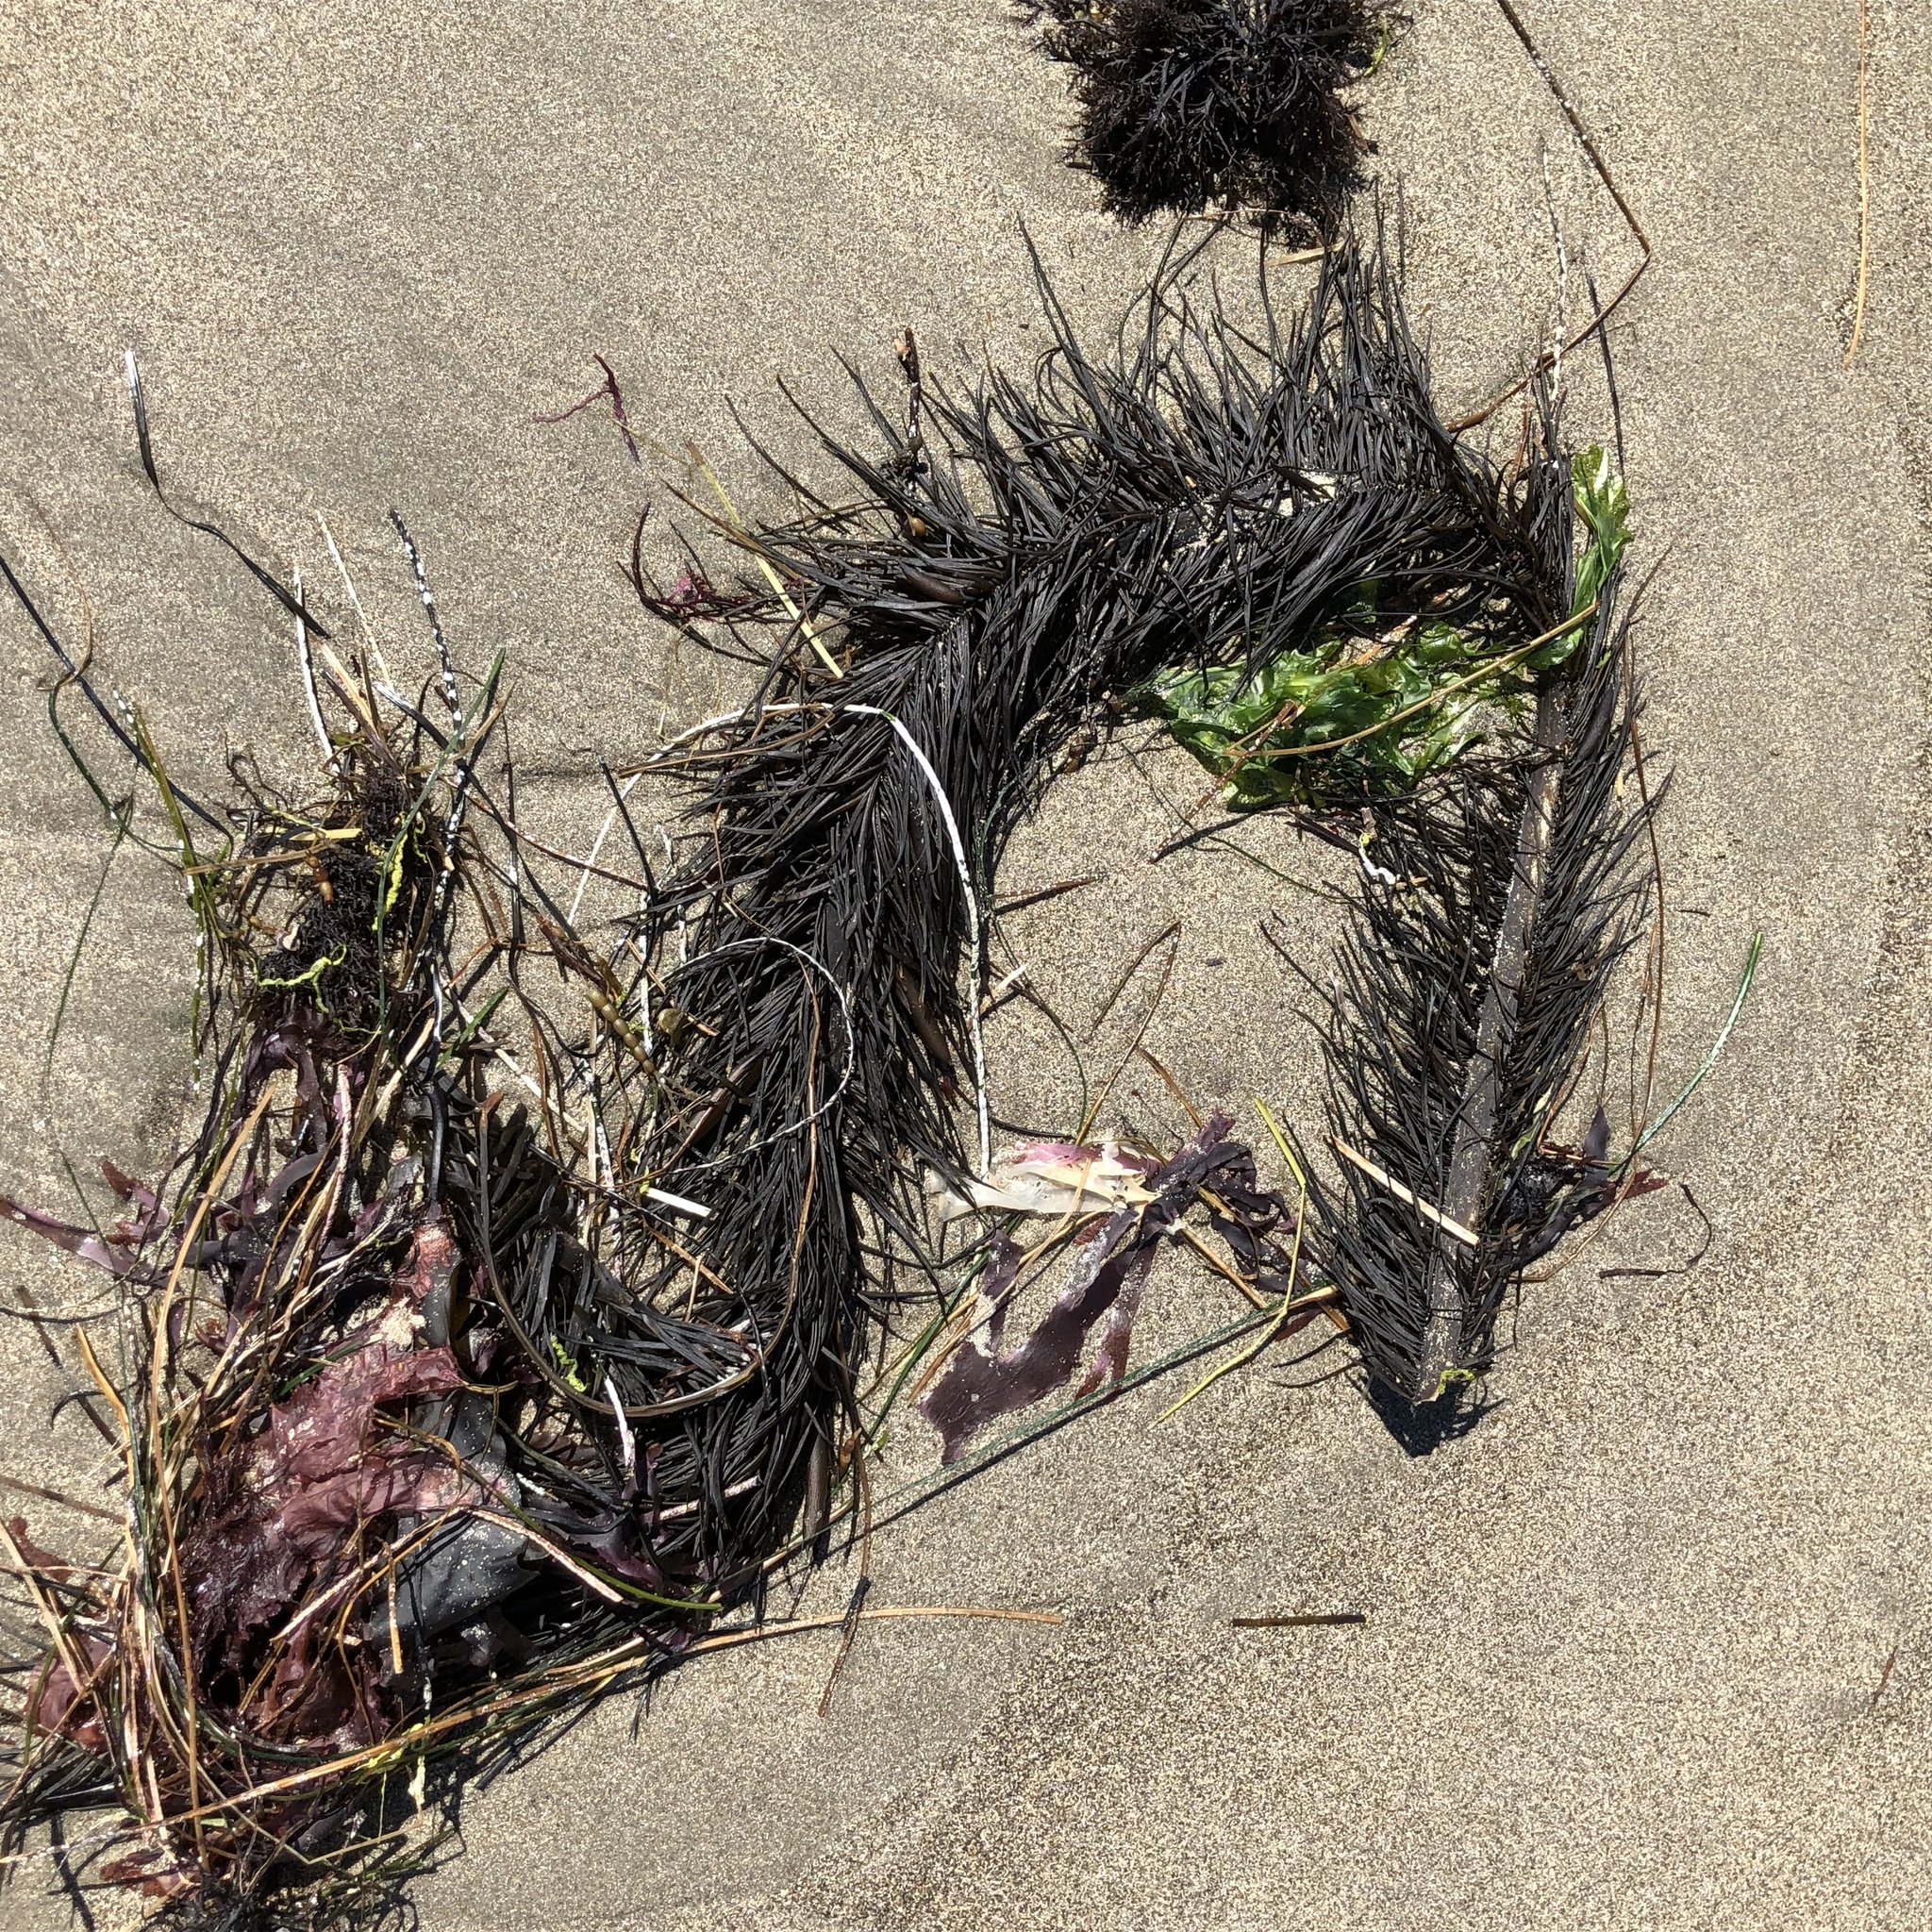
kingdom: Chromista
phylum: Ochrophyta
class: Phaeophyceae
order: Laminariales
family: Lessoniaceae
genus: Egregia
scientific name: Egregia menziesii
